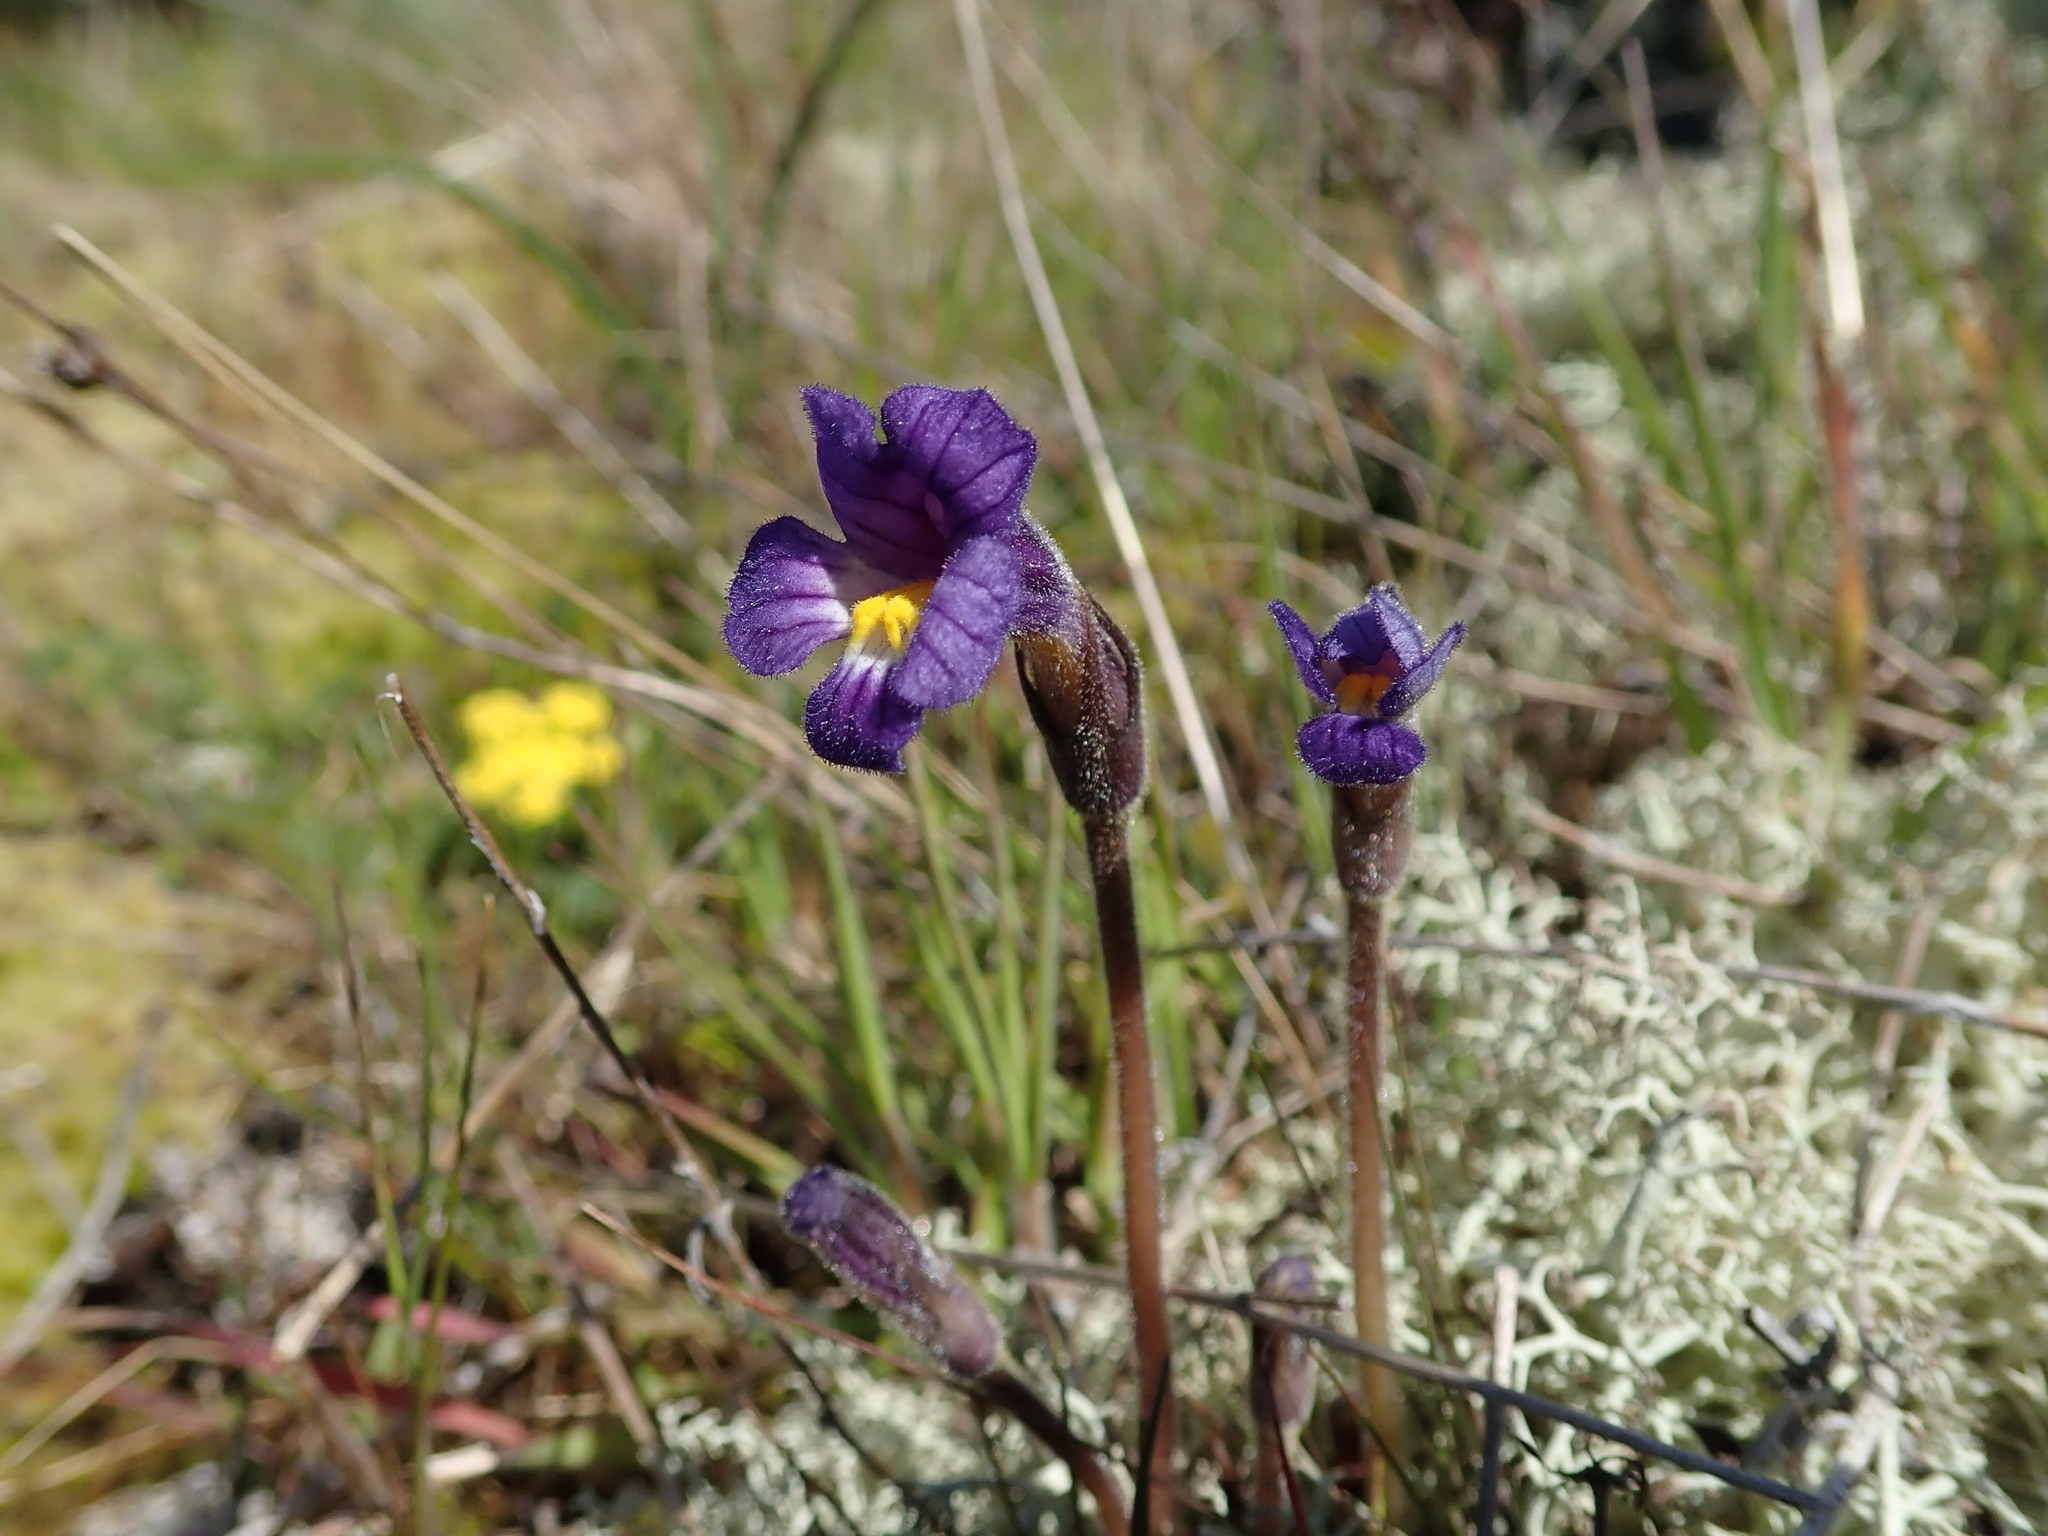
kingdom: Plantae
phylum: Tracheophyta
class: Magnoliopsida
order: Lamiales
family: Orobanchaceae
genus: Aphyllon
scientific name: Aphyllon uniflorum
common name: One-flowered broomrape
